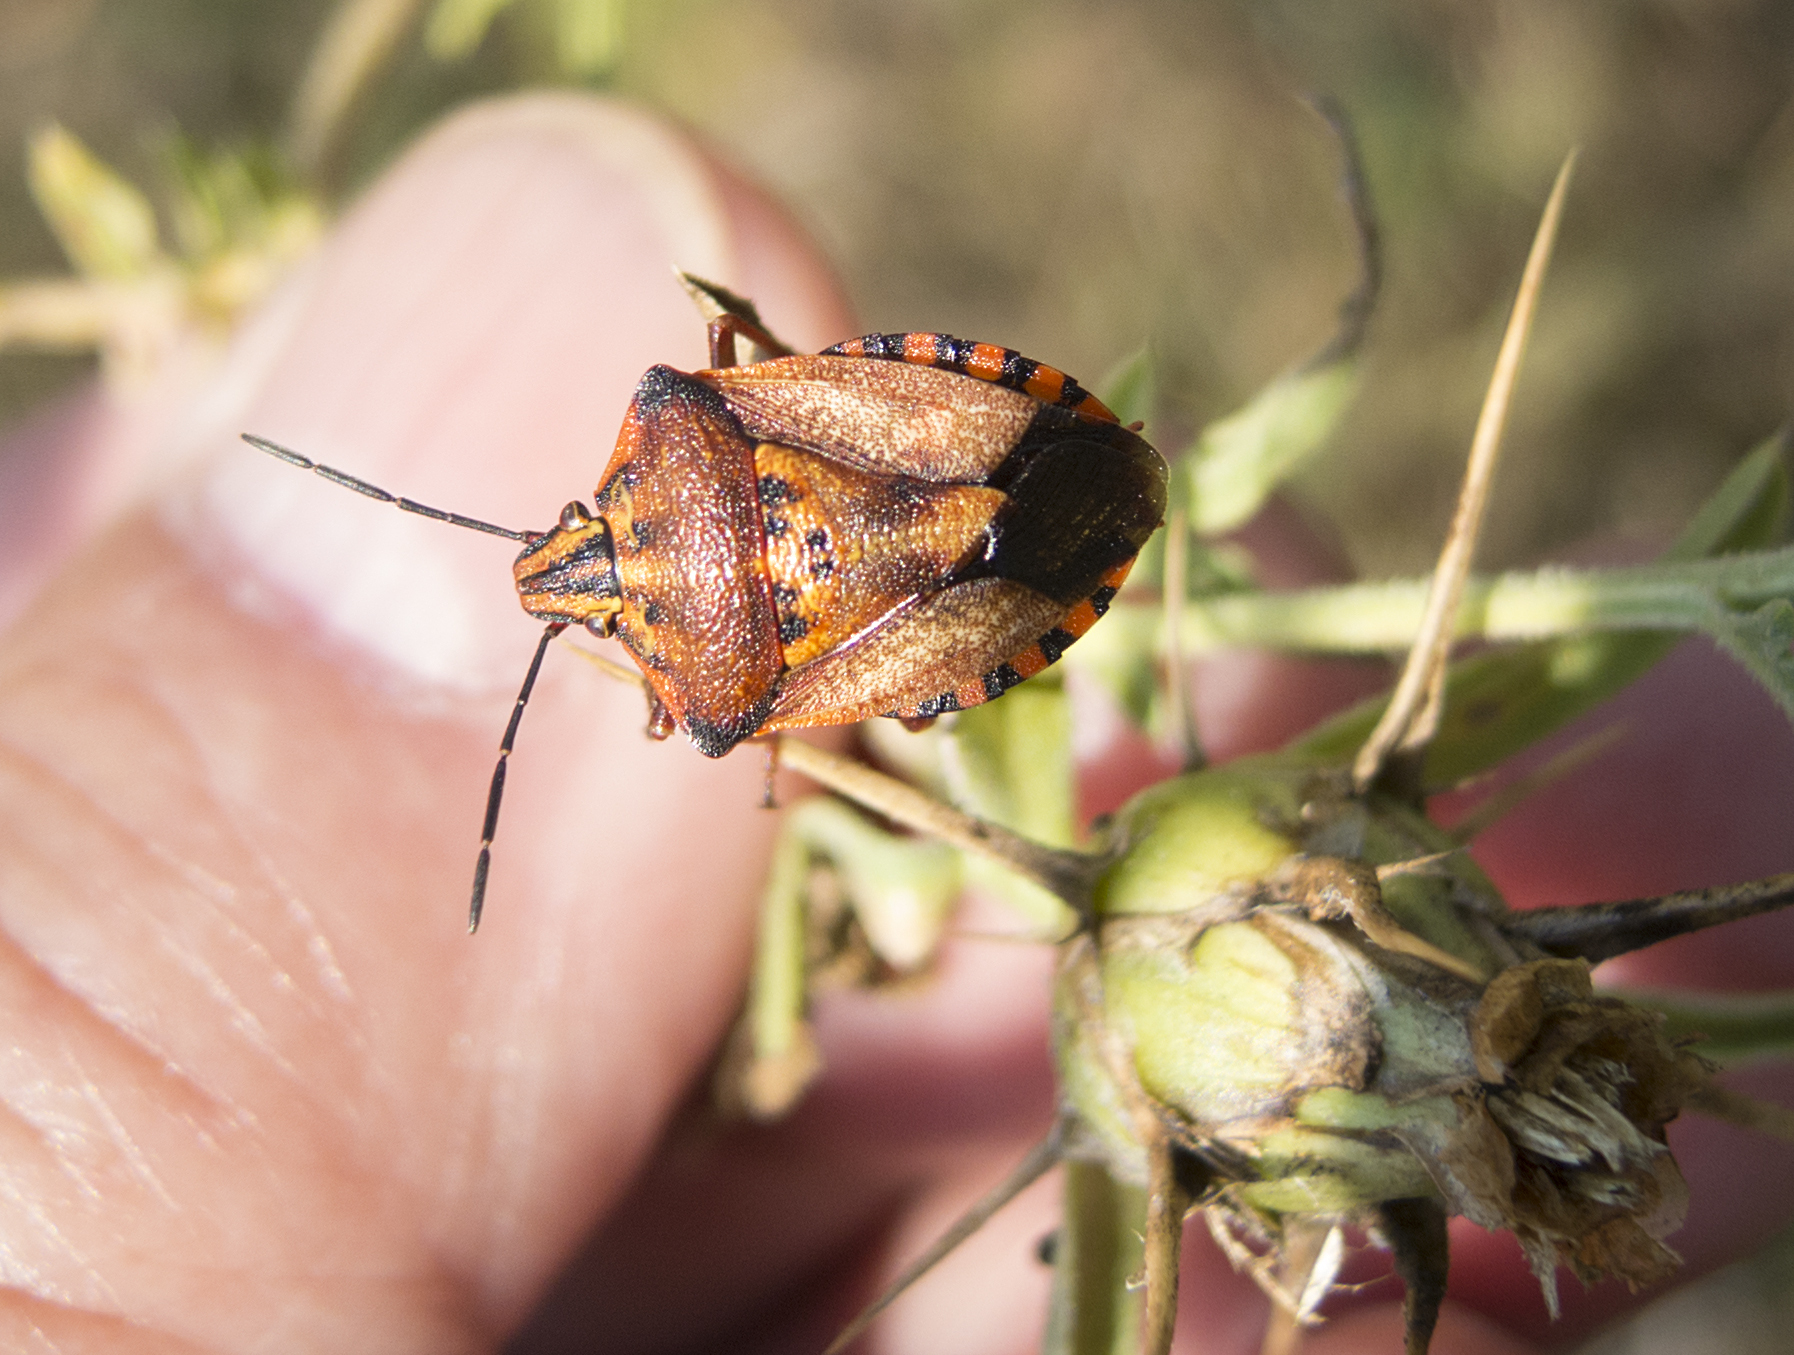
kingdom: Animalia
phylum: Arthropoda
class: Insecta
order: Hemiptera
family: Pentatomidae
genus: Carpocoris
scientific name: Carpocoris mediterraneus
